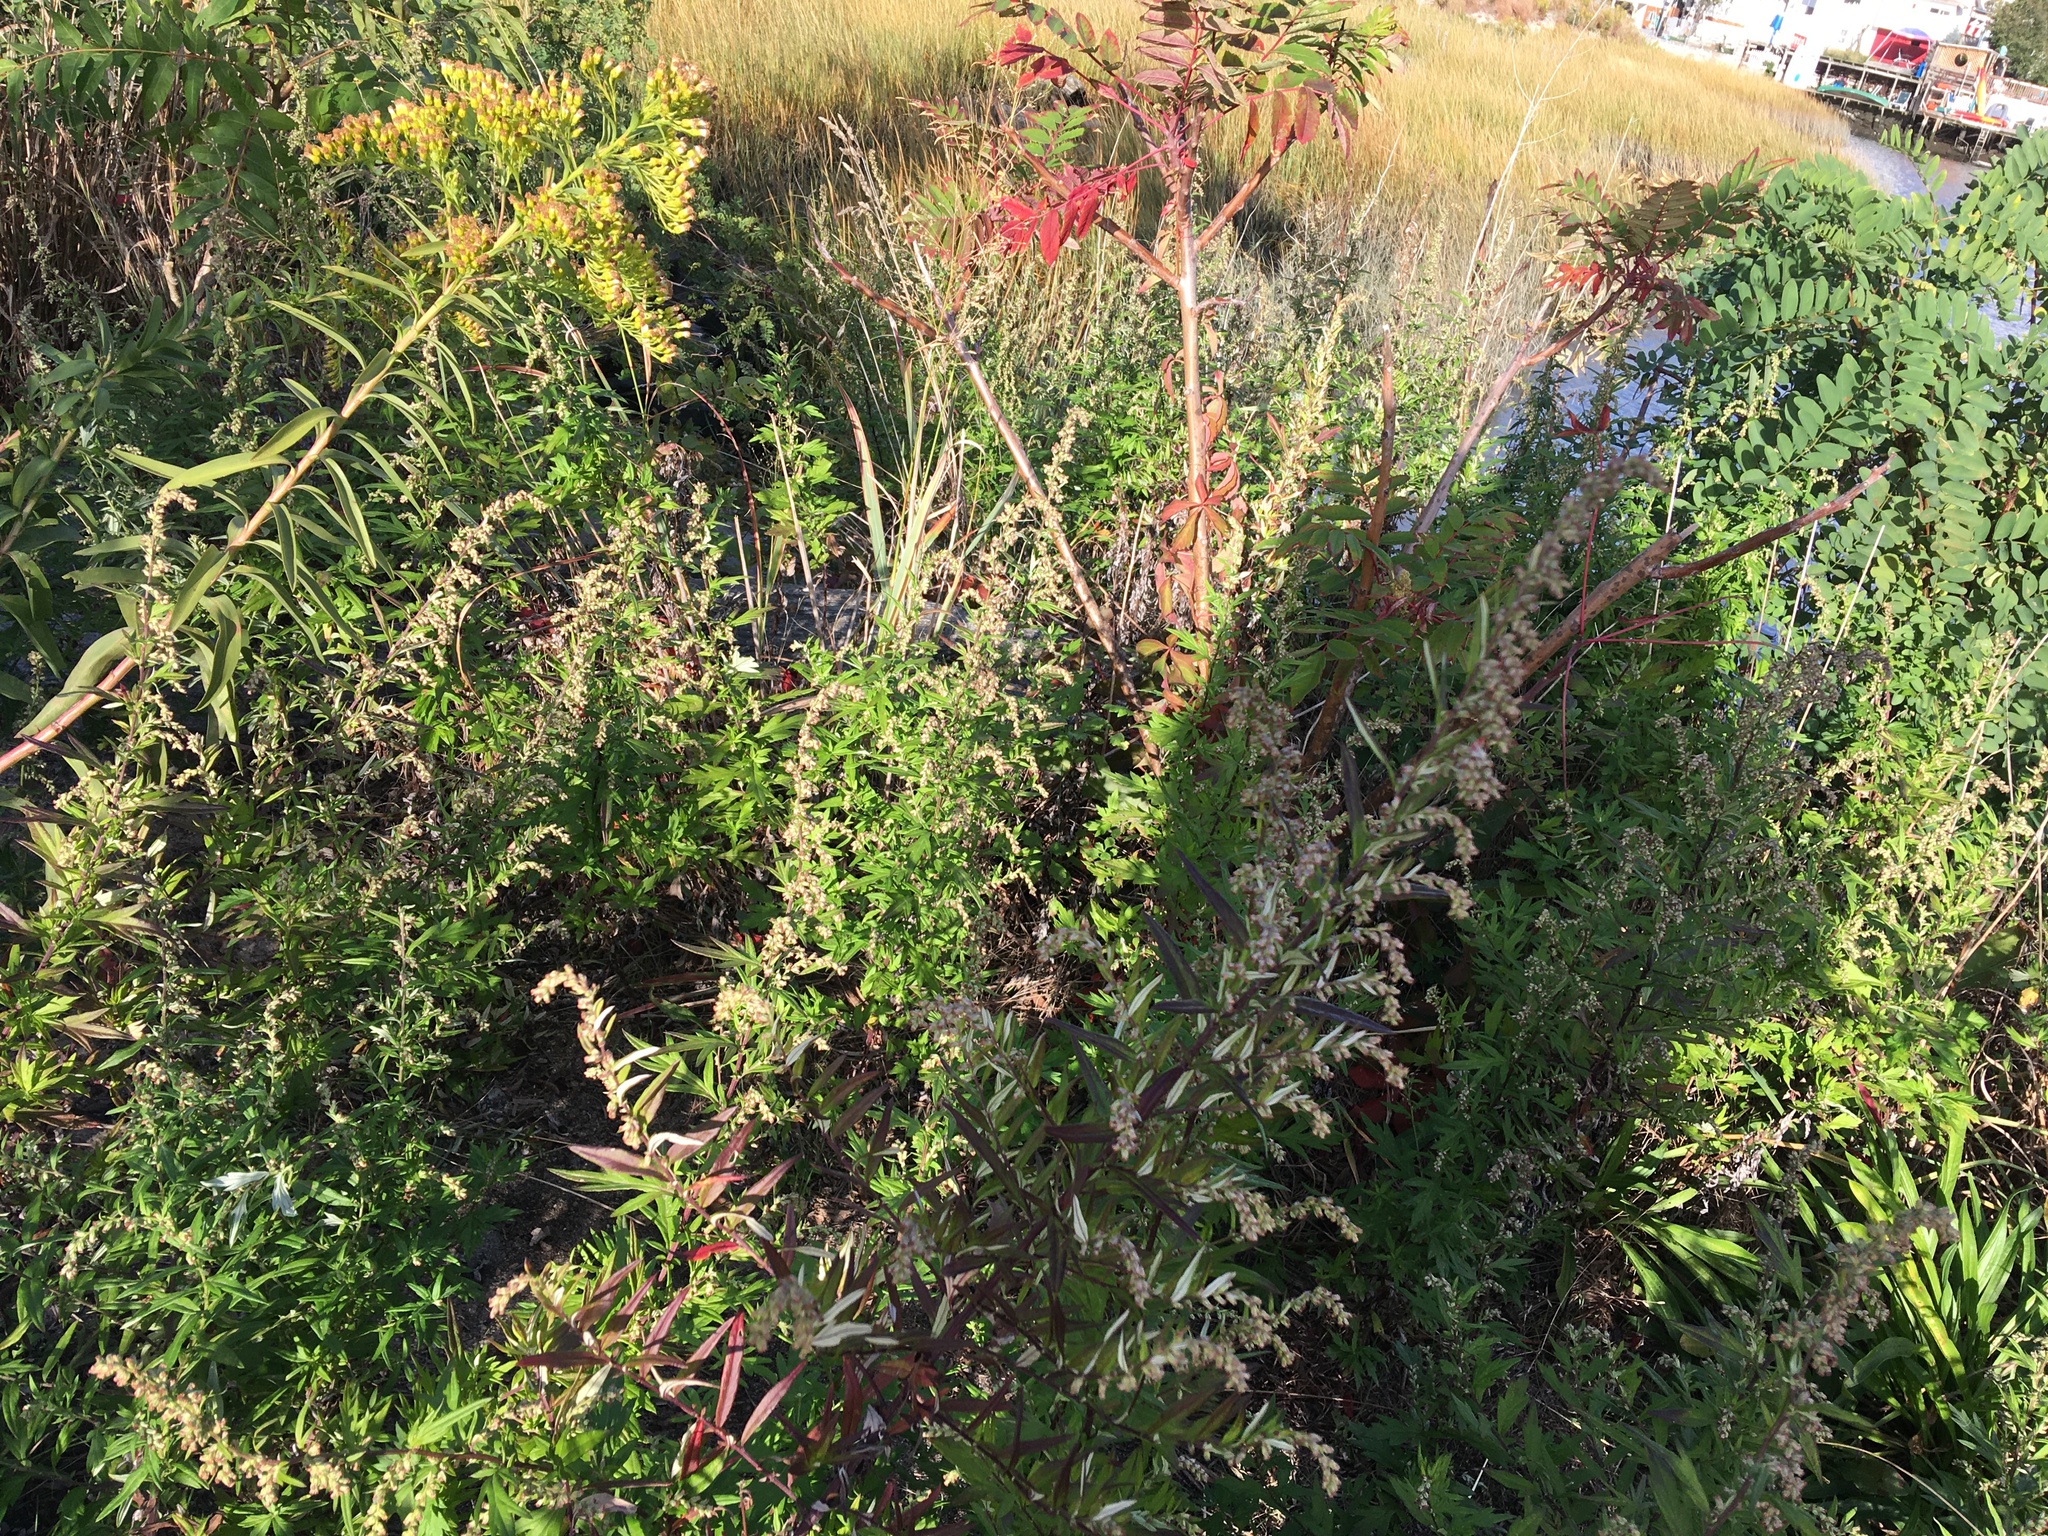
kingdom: Plantae
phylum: Tracheophyta
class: Magnoliopsida
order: Asterales
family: Asteraceae
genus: Artemisia
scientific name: Artemisia vulgaris
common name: Mugwort
